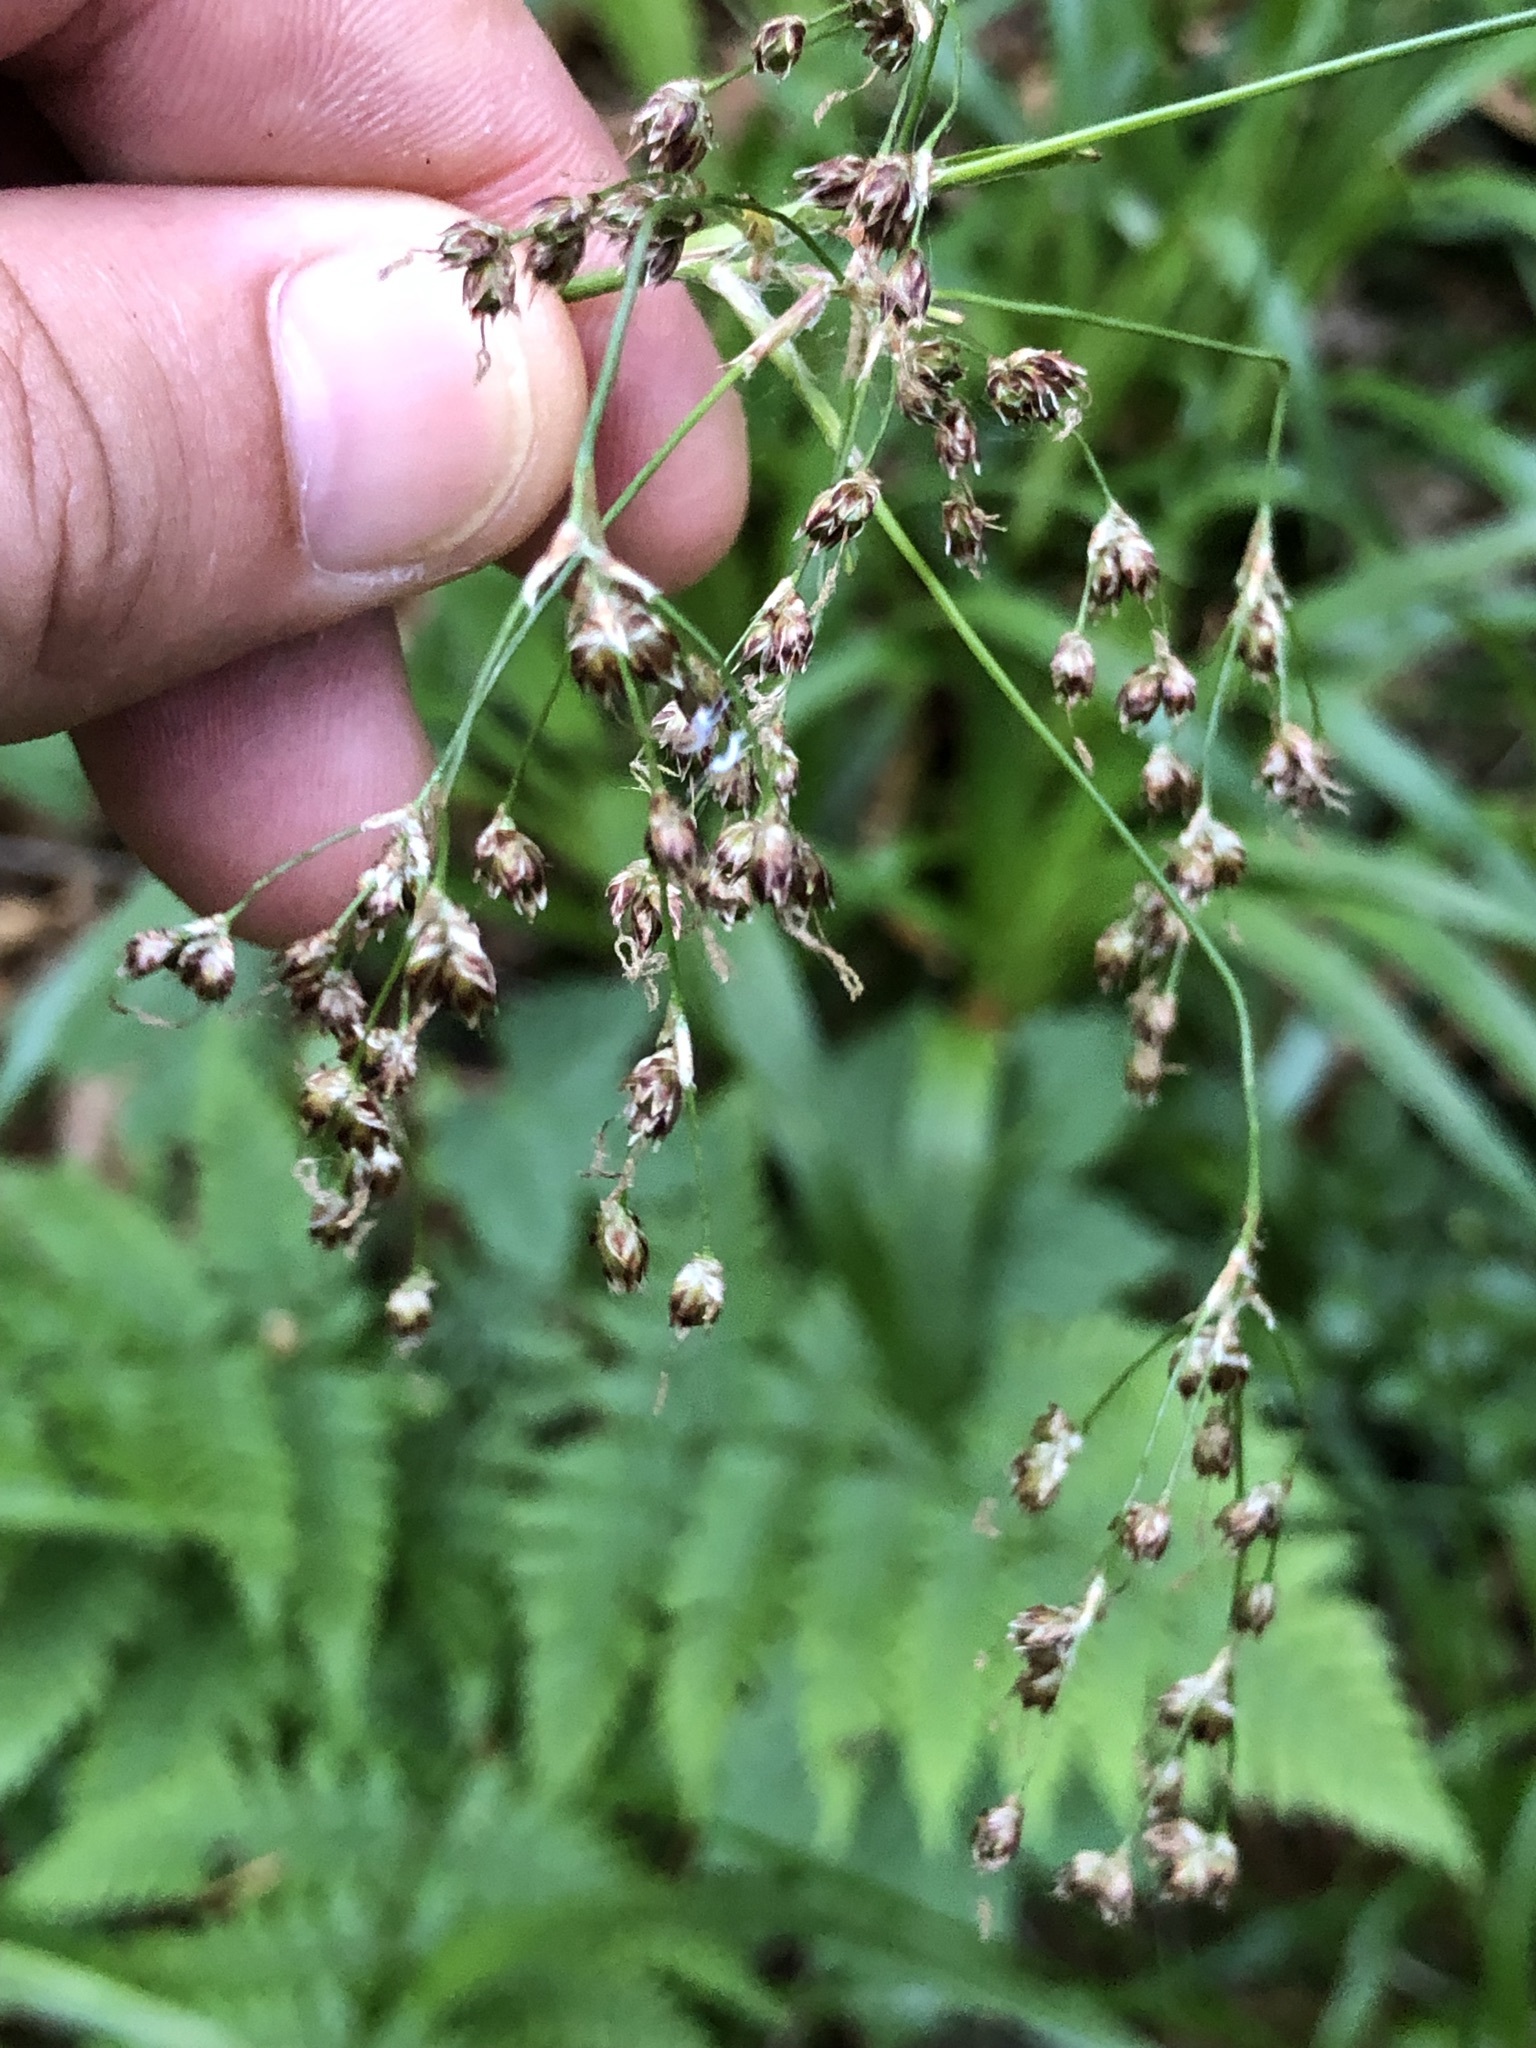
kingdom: Plantae
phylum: Tracheophyta
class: Liliopsida
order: Poales
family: Juncaceae
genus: Luzula
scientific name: Luzula sylvatica
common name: Great wood-rush
